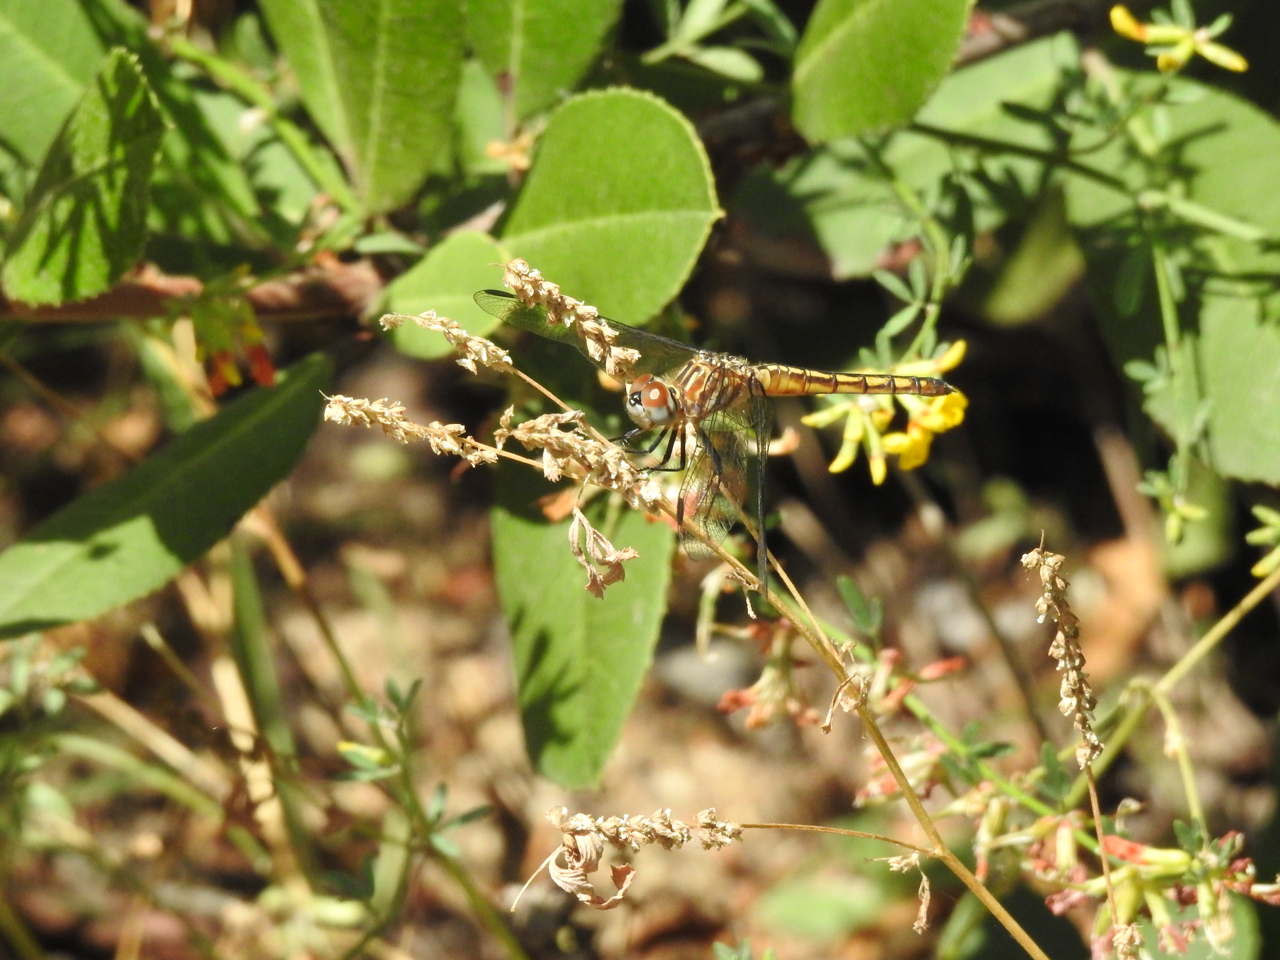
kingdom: Animalia
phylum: Arthropoda
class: Insecta
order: Odonata
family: Libellulidae
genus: Pachydiplax
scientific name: Pachydiplax longipennis
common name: Blue dasher
